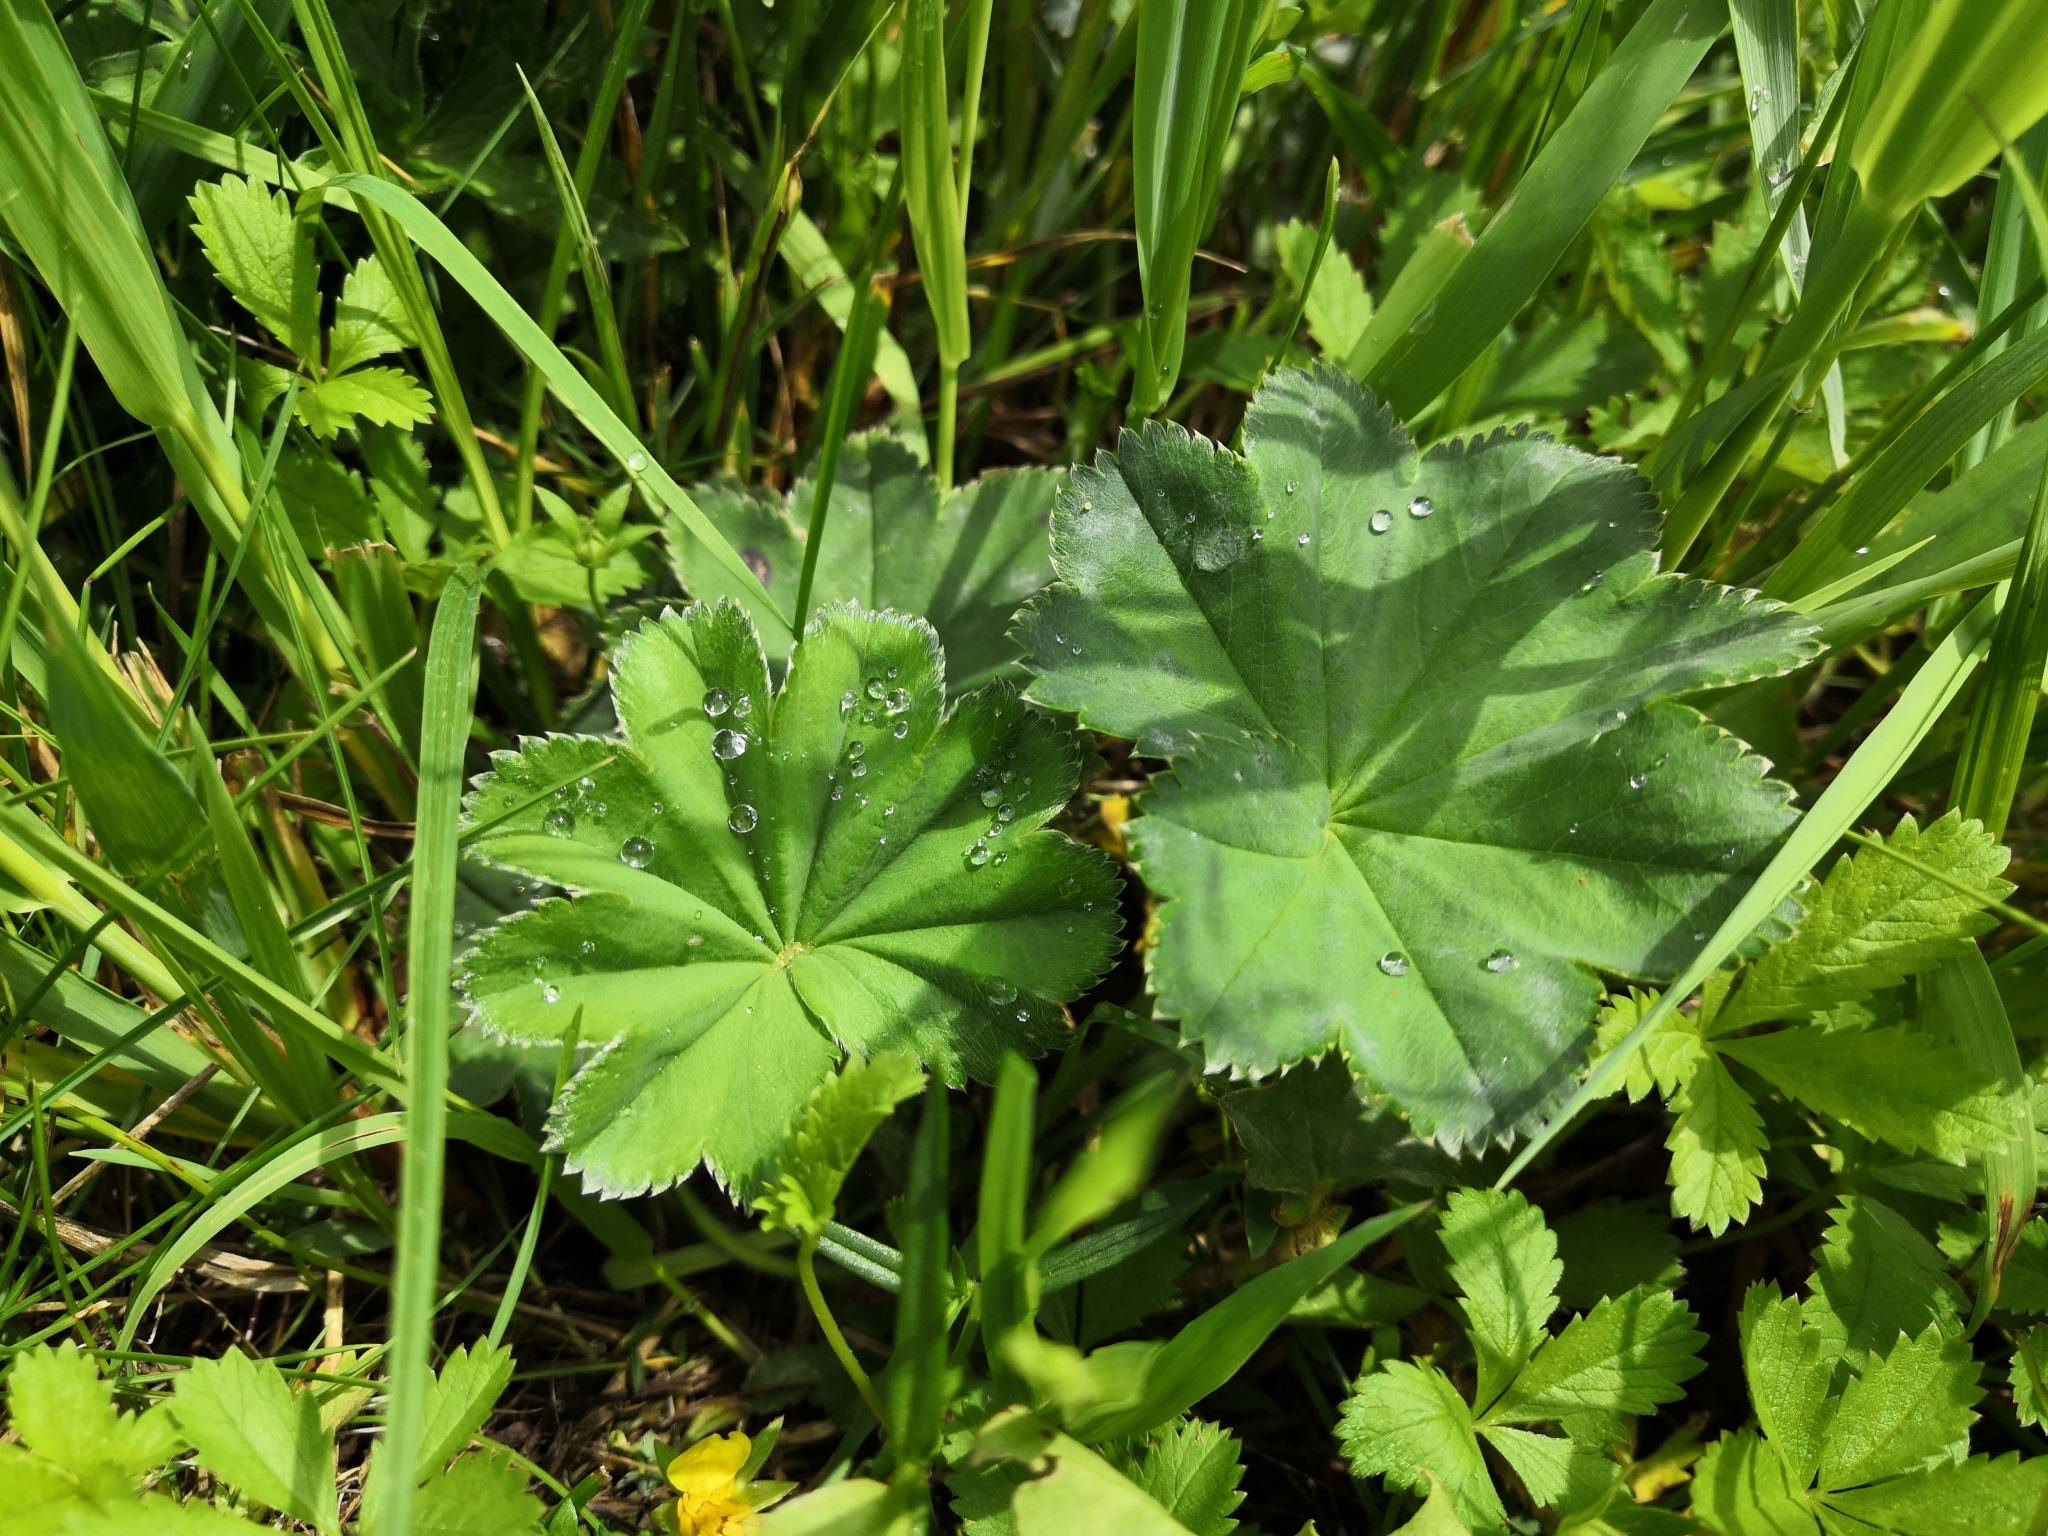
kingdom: Plantae
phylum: Tracheophyta
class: Magnoliopsida
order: Rosales
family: Rosaceae
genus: Alchemilla
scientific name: Alchemilla vulgaris
